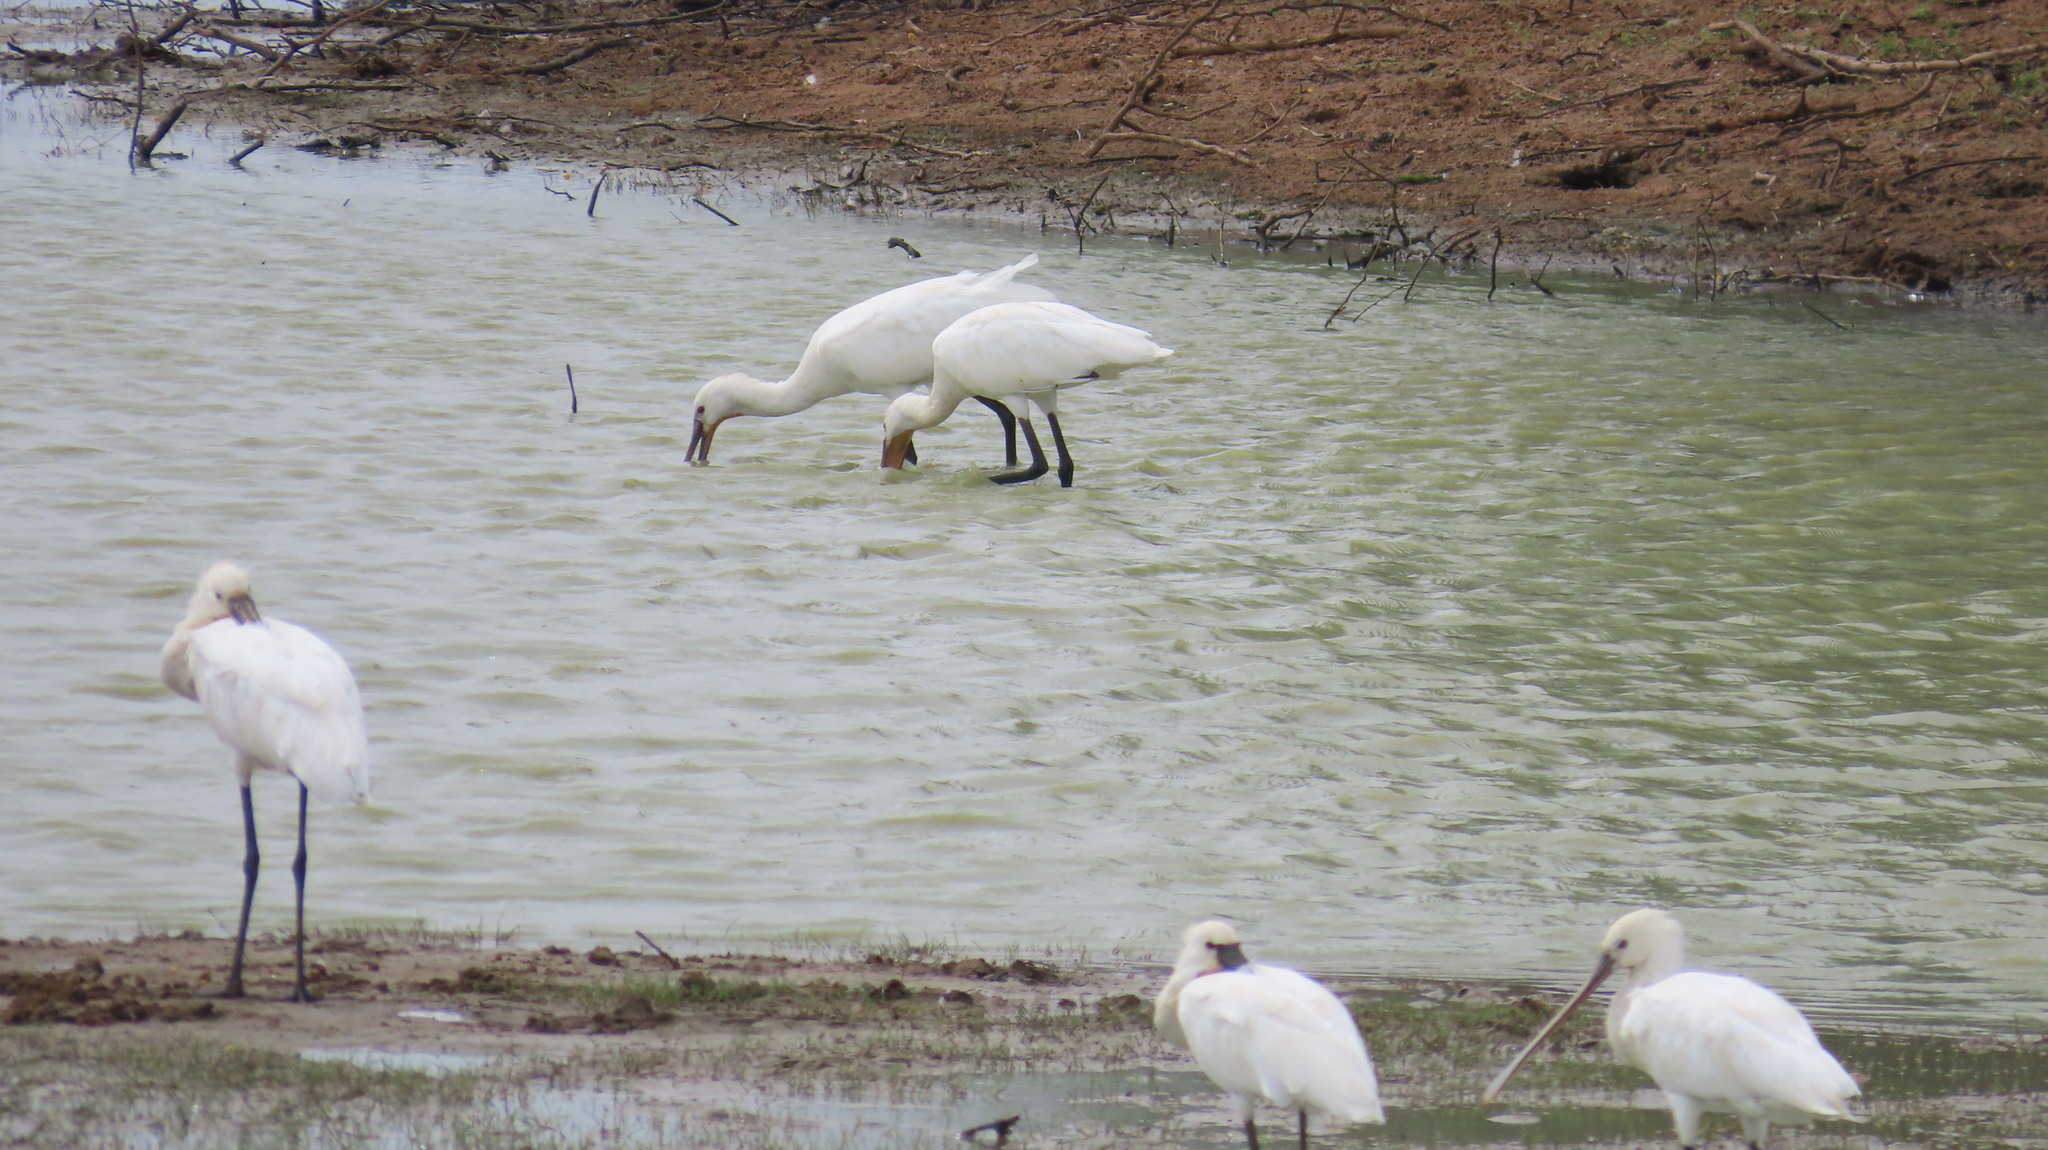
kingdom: Animalia
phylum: Chordata
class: Aves
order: Pelecaniformes
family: Threskiornithidae
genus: Platalea
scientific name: Platalea leucorodia
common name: Eurasian spoonbill
